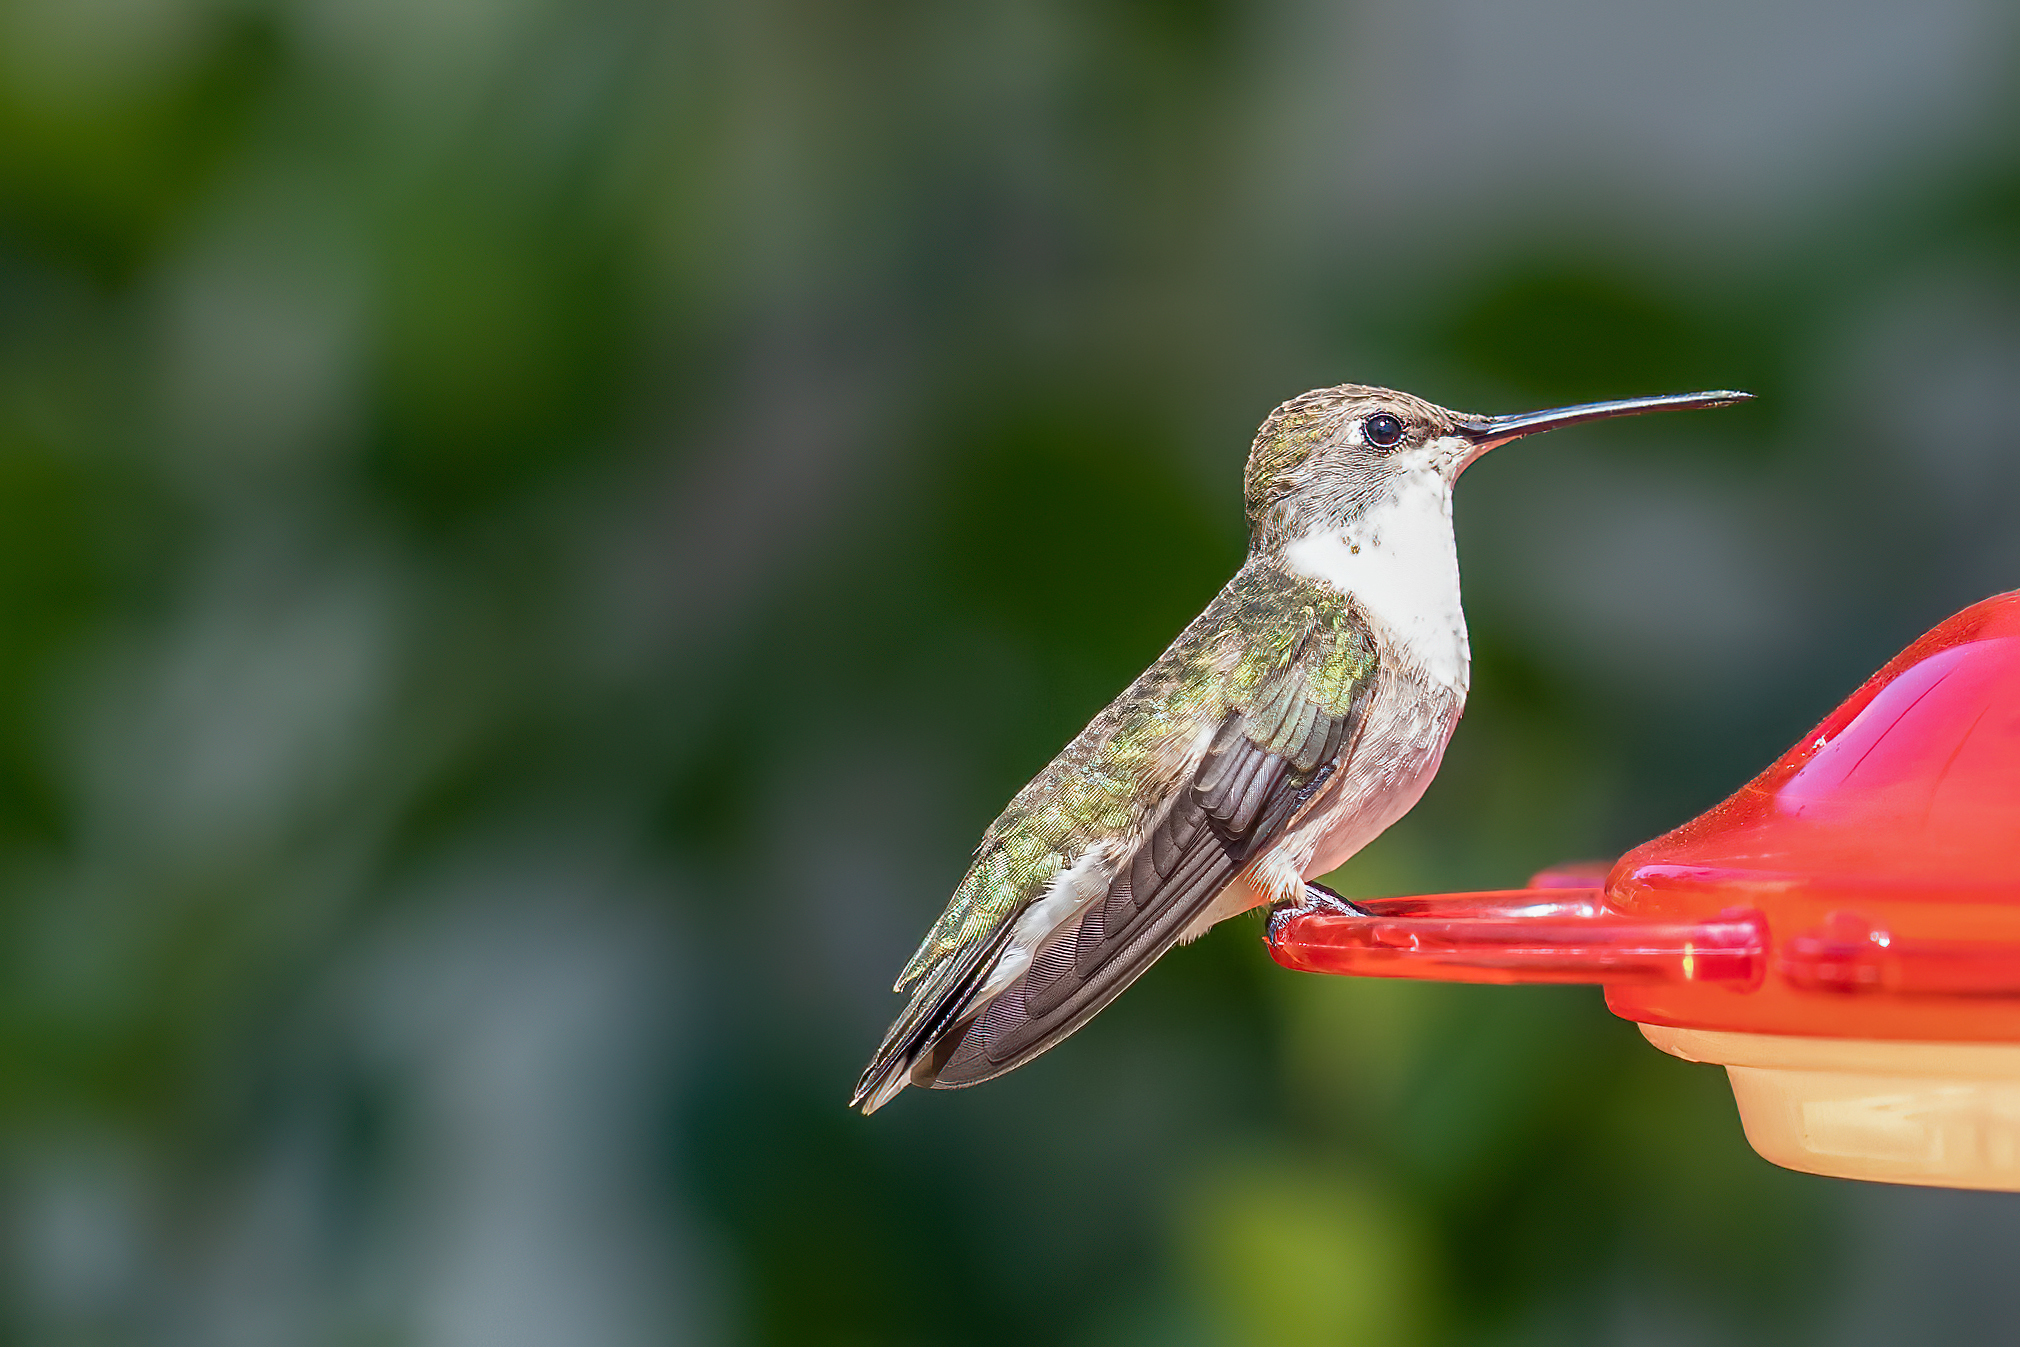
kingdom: Animalia
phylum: Chordata
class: Aves
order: Apodiformes
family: Trochilidae
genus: Calypte
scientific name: Calypte anna
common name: Anna's hummingbird
